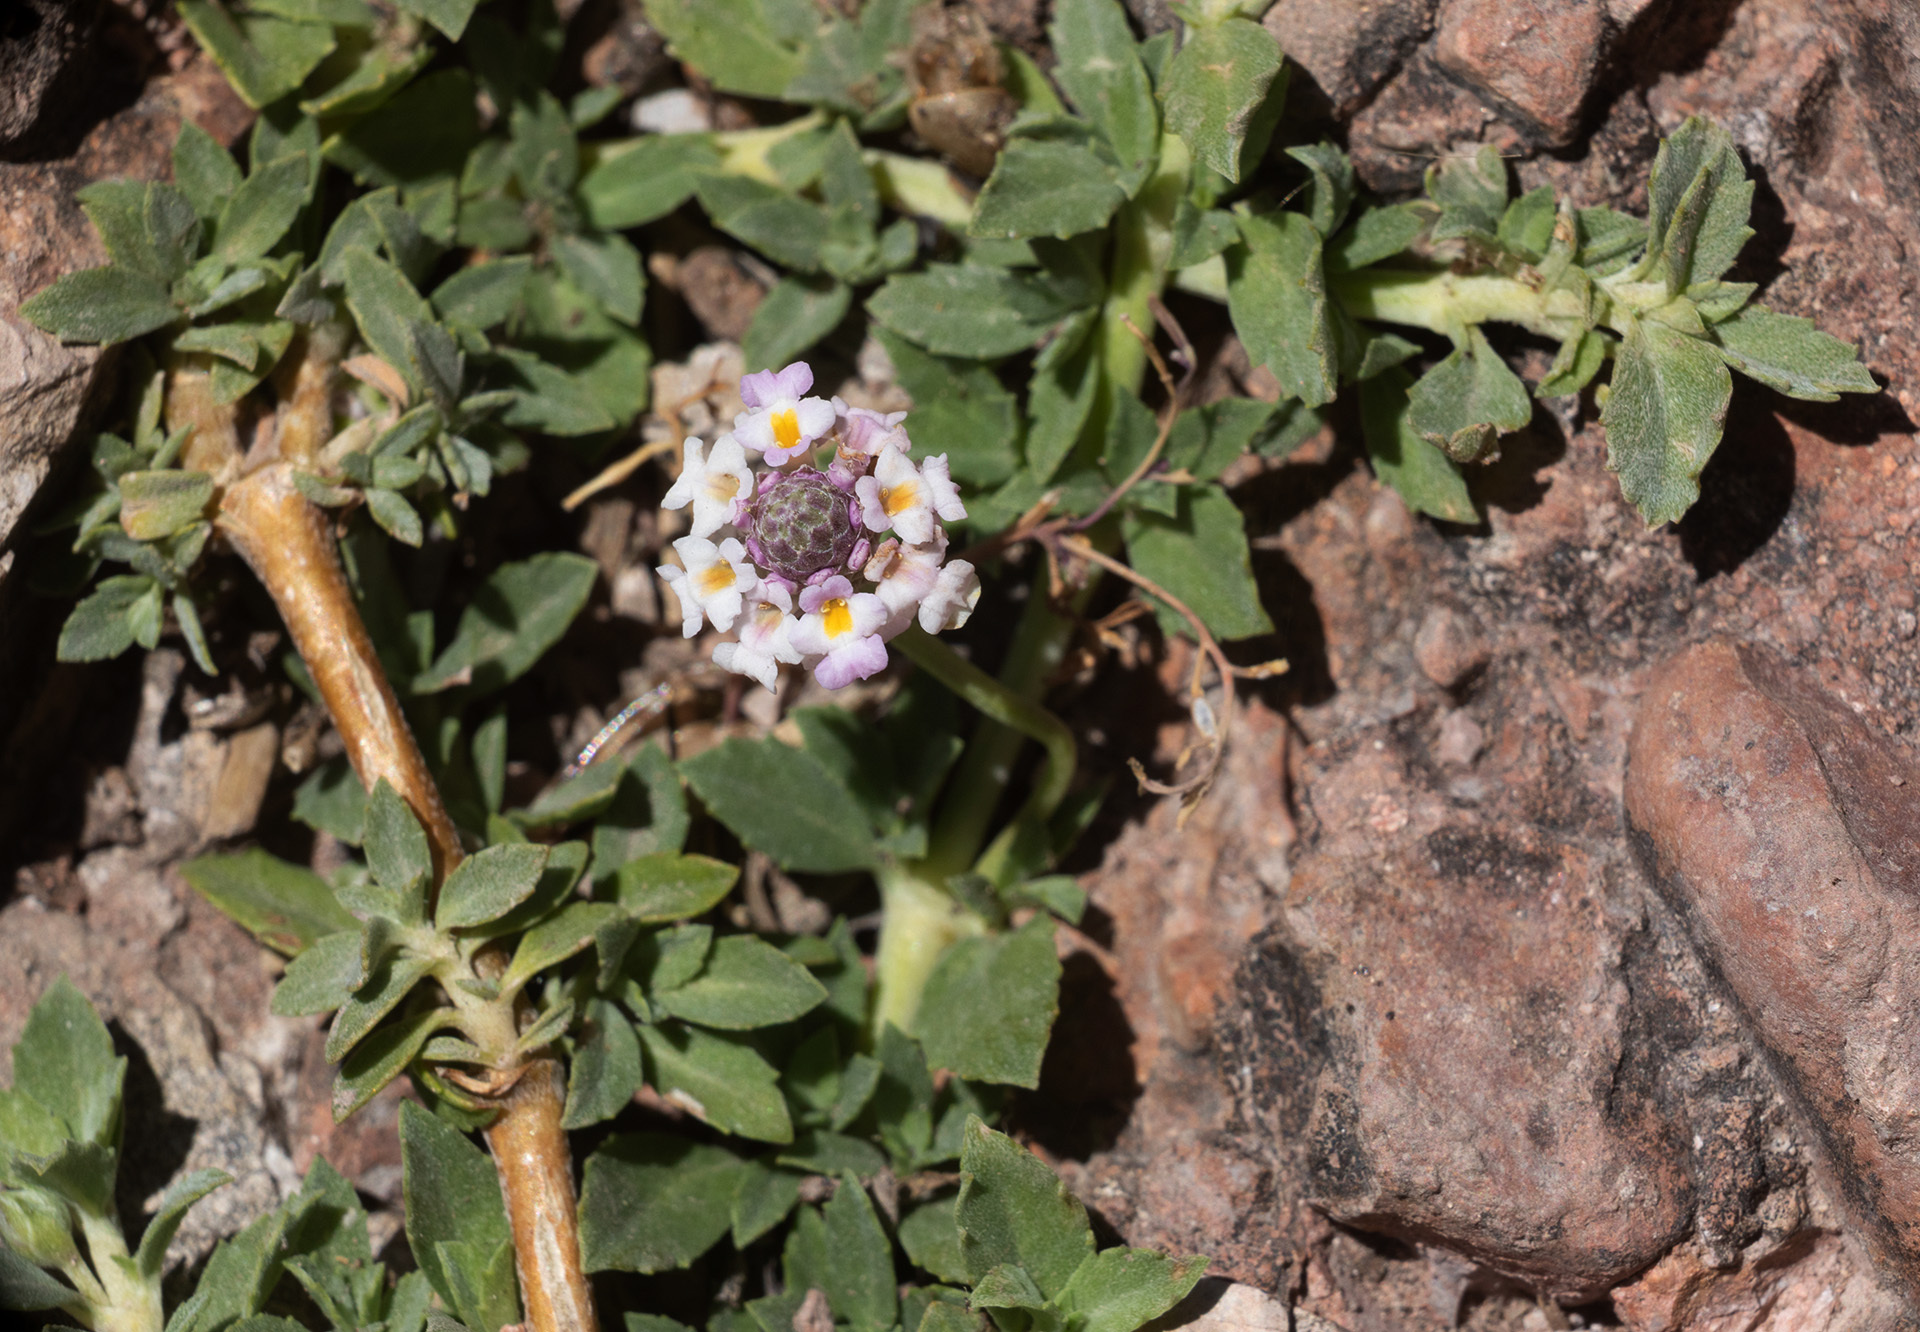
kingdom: Plantae
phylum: Tracheophyta
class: Magnoliopsida
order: Lamiales
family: Verbenaceae
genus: Phyla
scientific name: Phyla nodiflora
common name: Frogfruit
